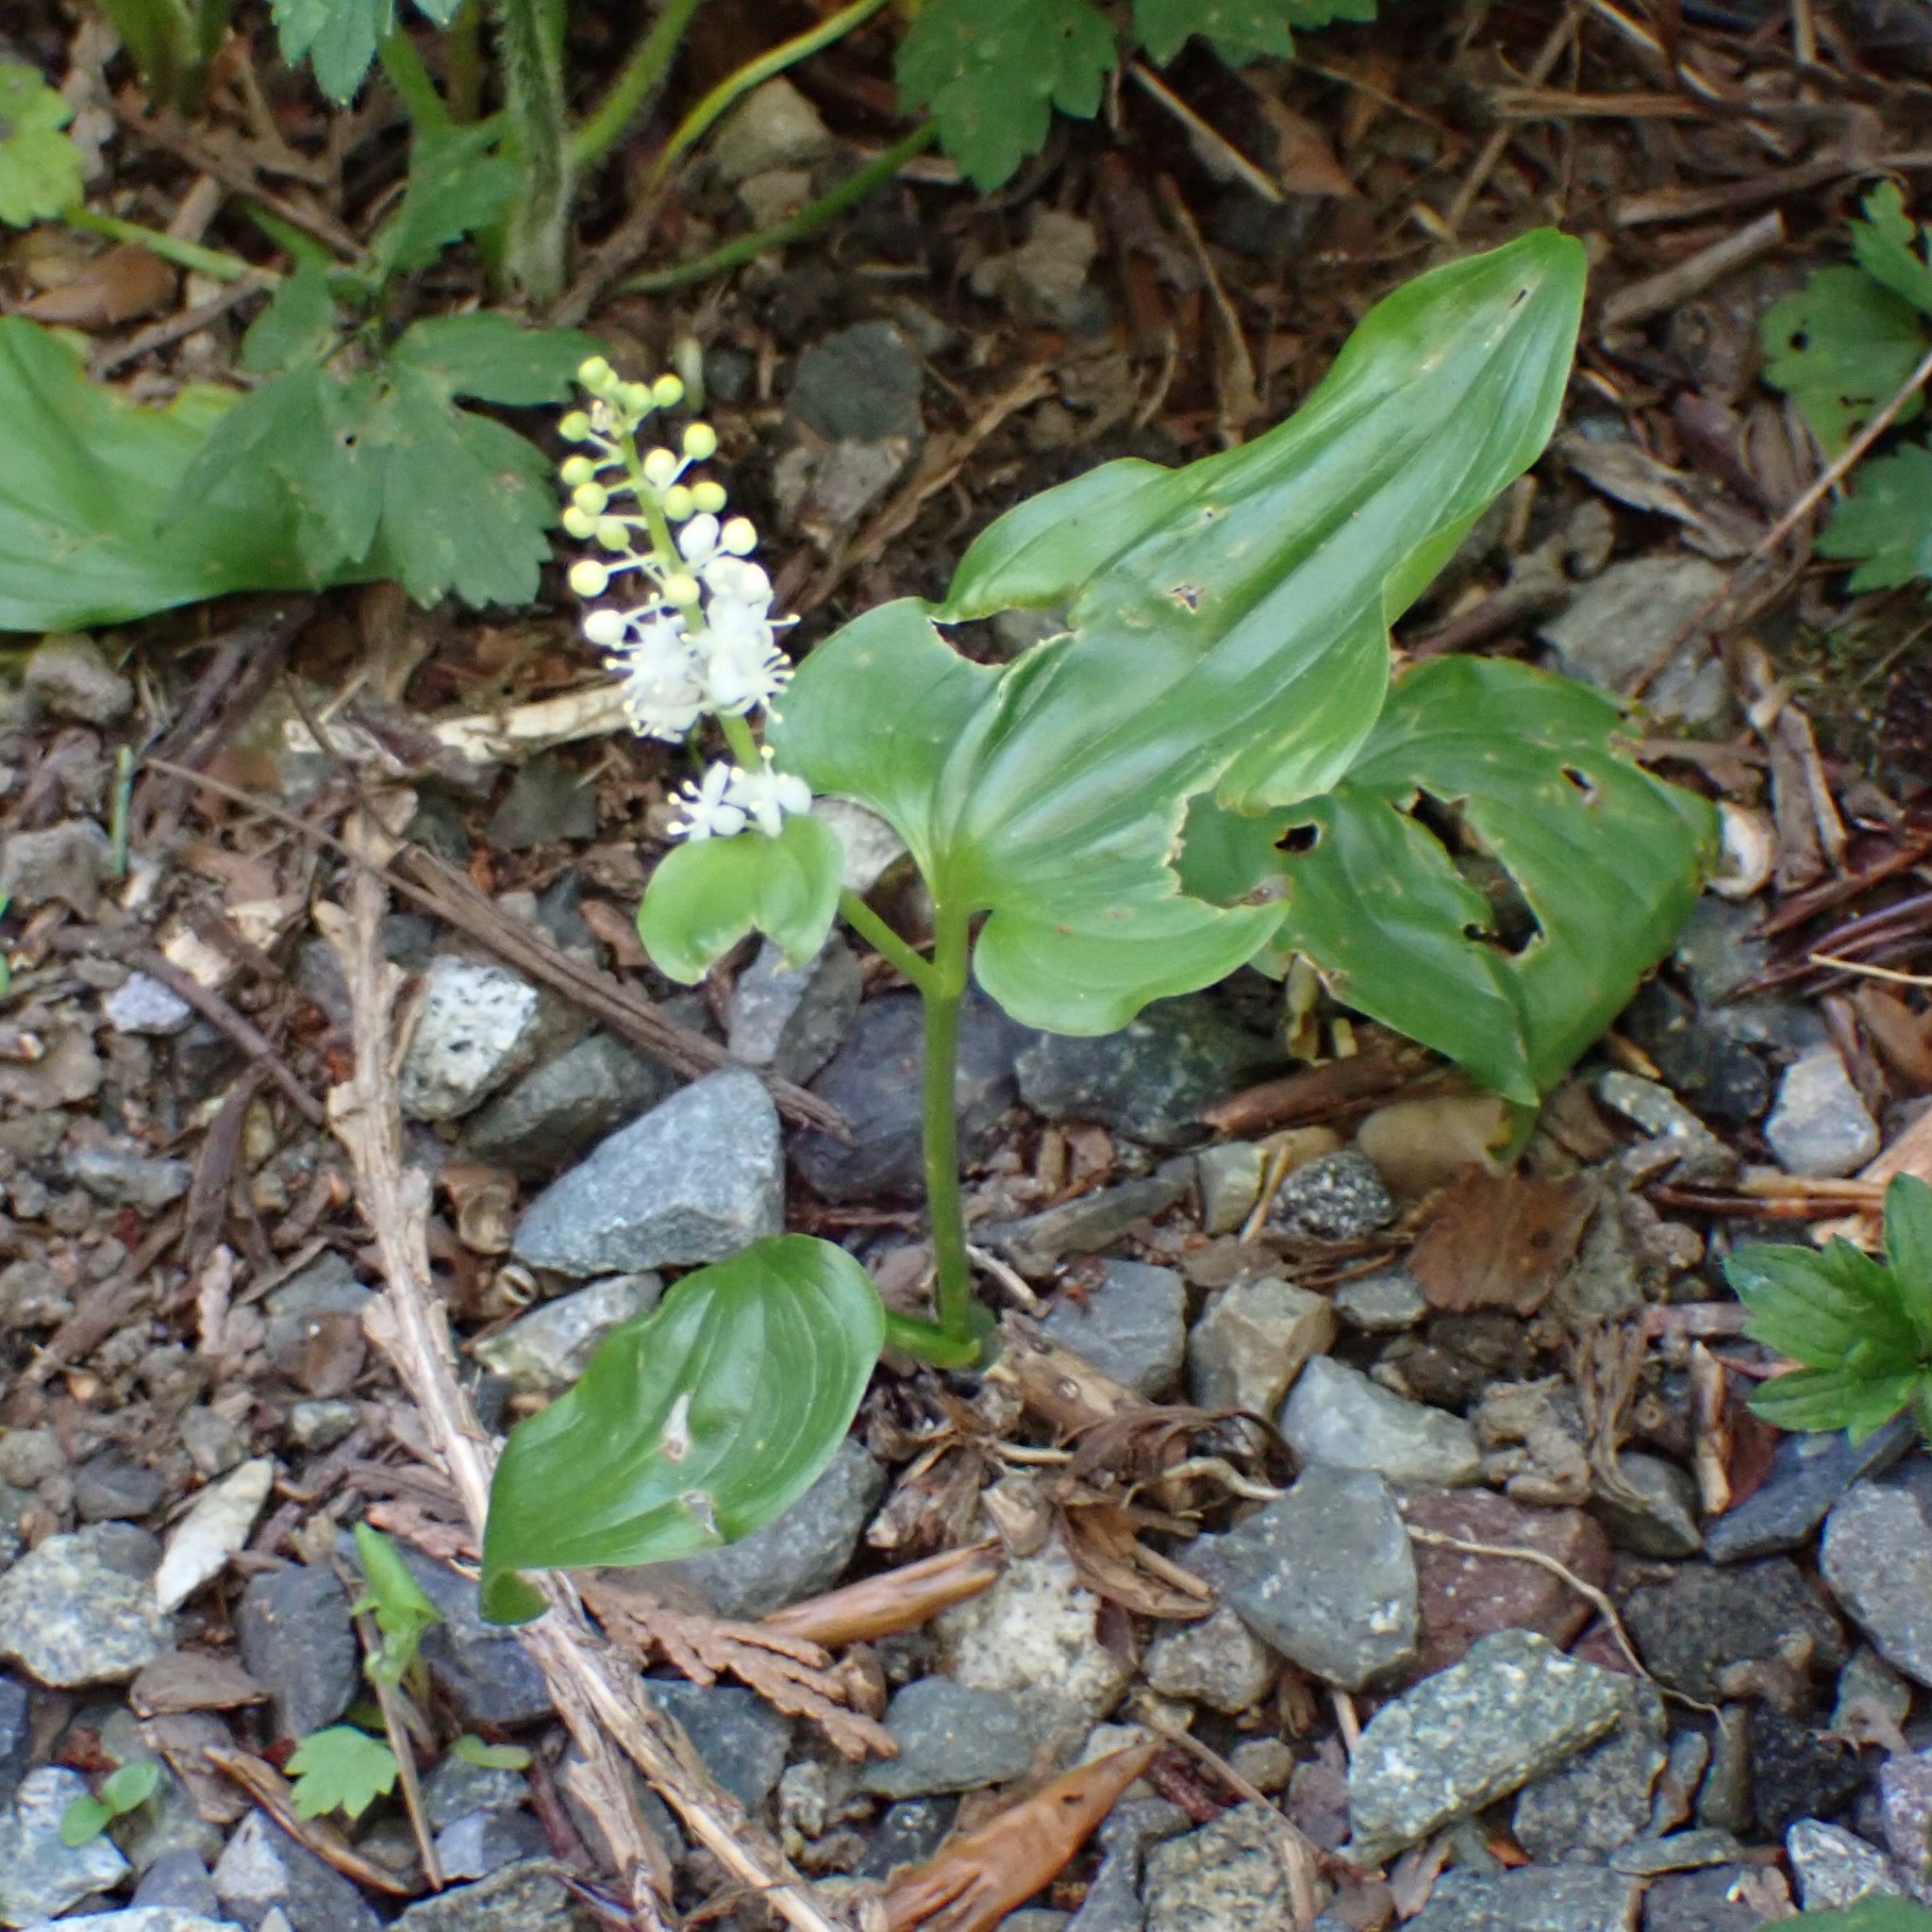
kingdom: Plantae
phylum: Tracheophyta
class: Liliopsida
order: Asparagales
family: Asparagaceae
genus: Maianthemum
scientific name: Maianthemum dilatatum
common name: False lily-of-the-valley
